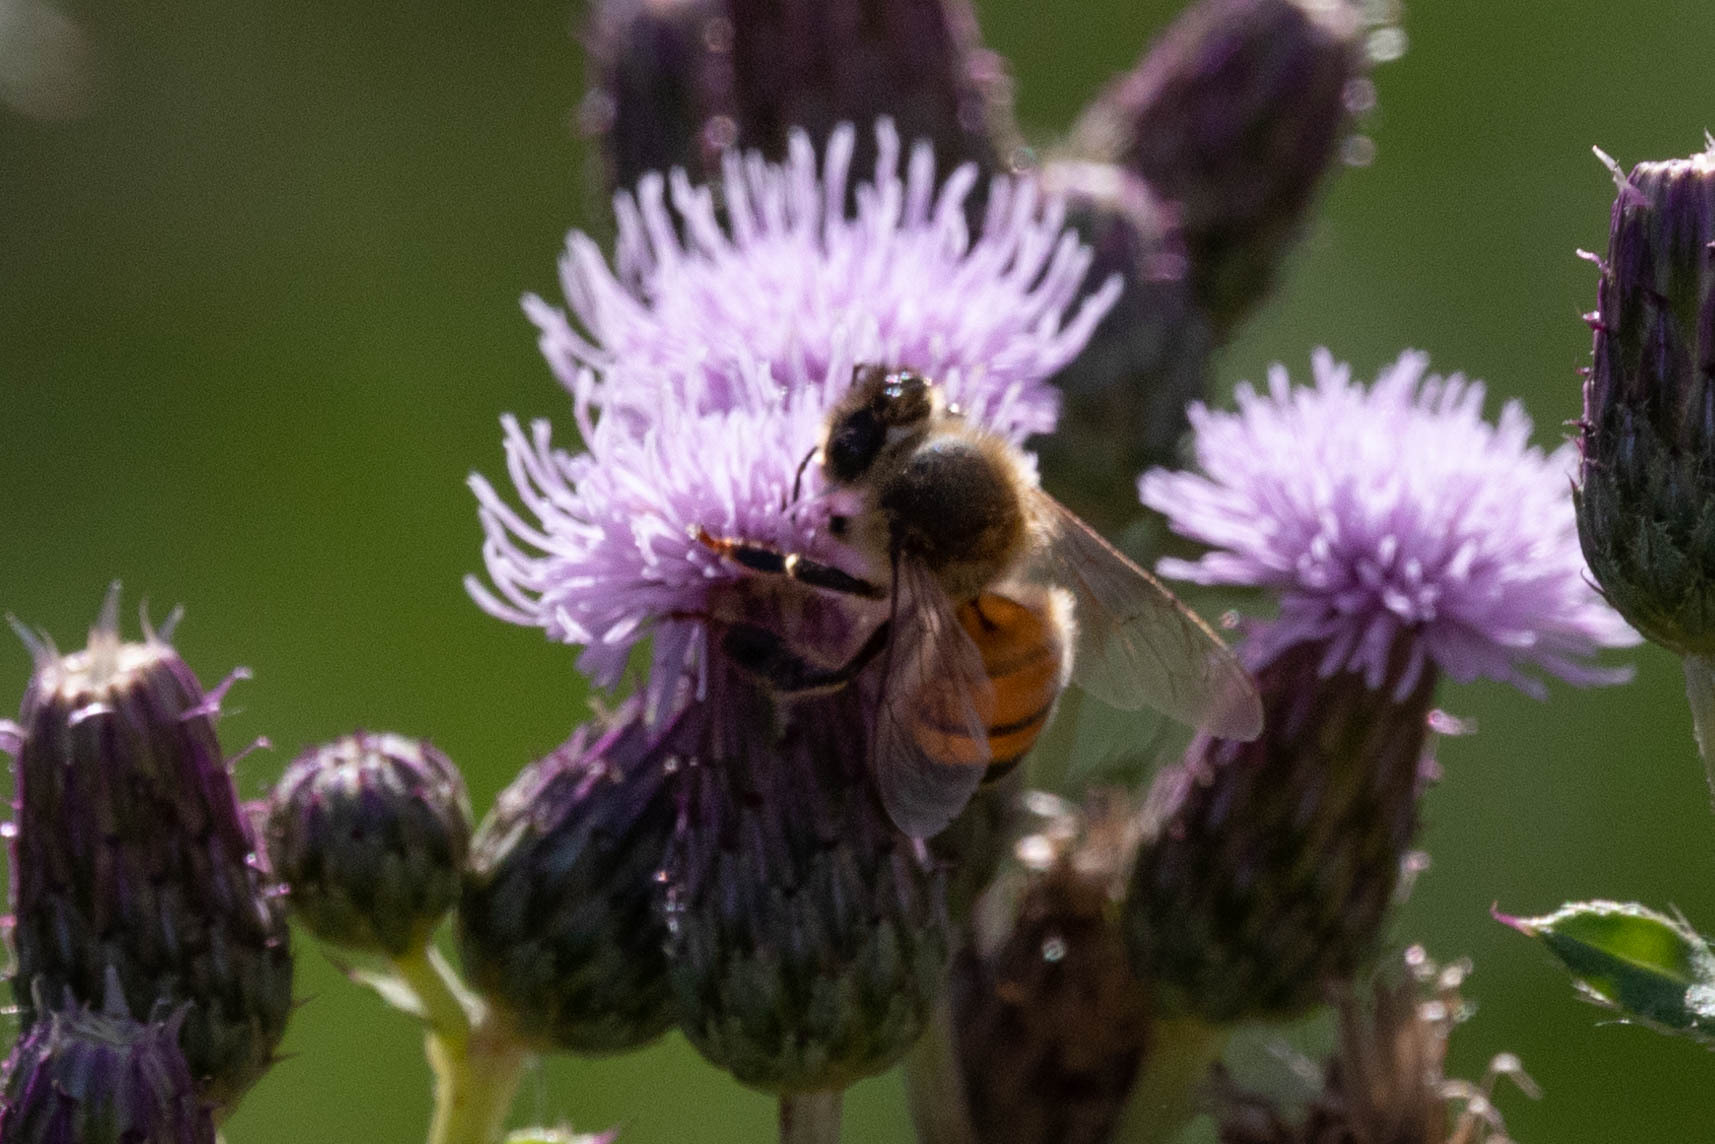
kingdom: Animalia
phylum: Arthropoda
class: Insecta
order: Hymenoptera
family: Apidae
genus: Apis
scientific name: Apis mellifera
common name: Honey bee
